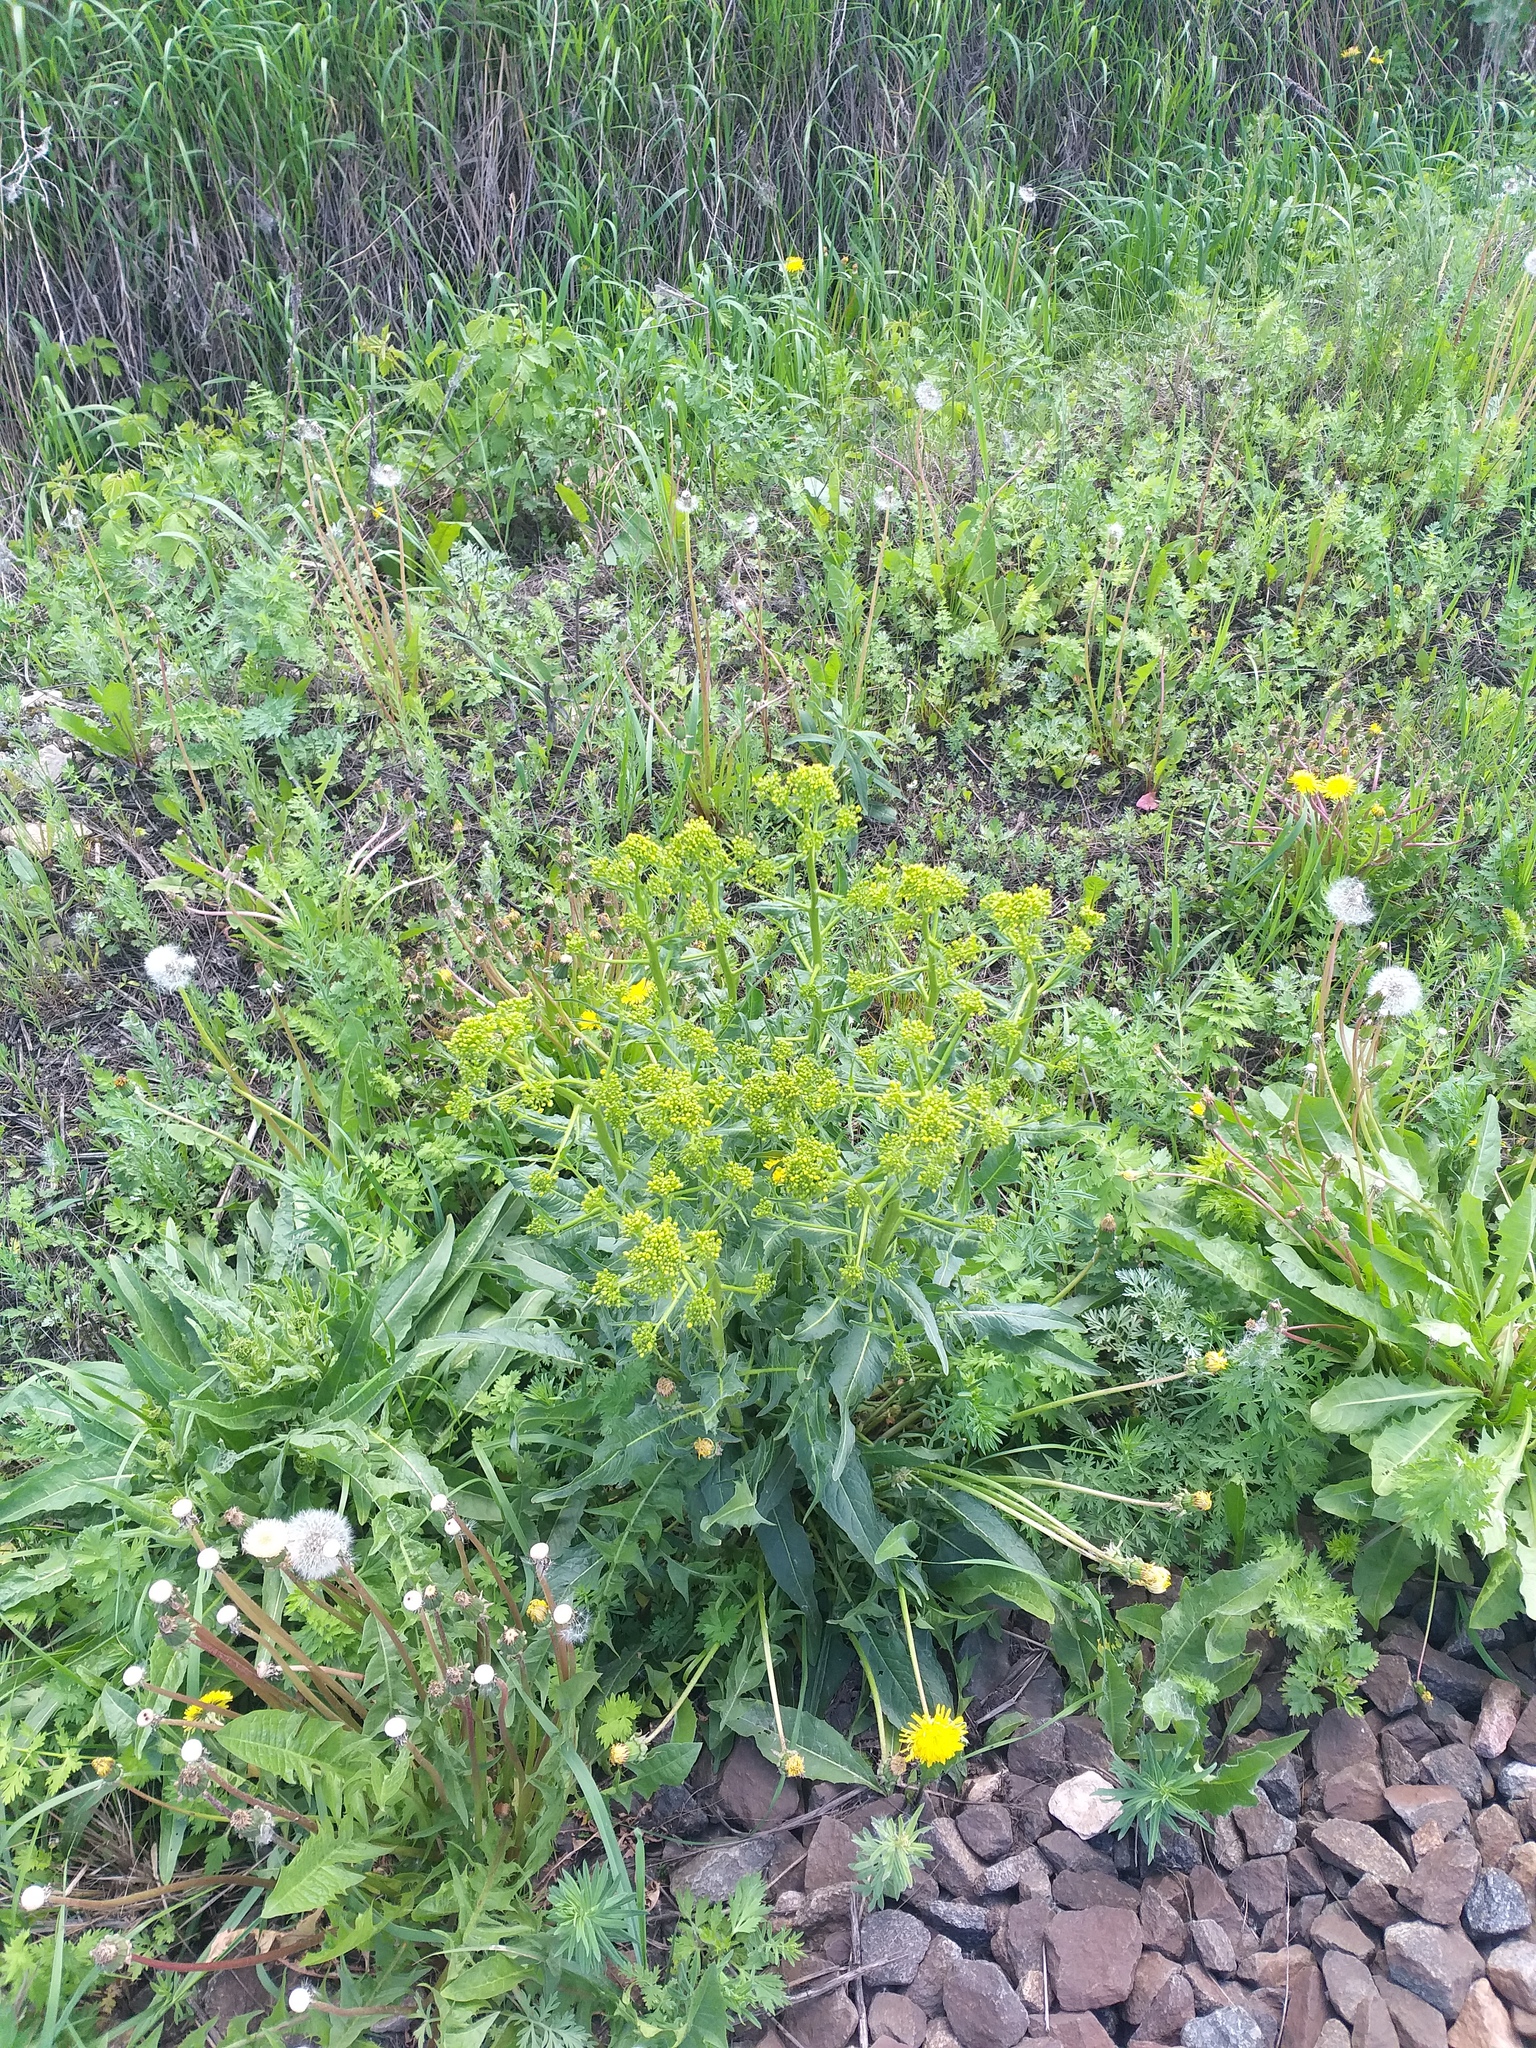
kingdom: Plantae
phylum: Tracheophyta
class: Magnoliopsida
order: Brassicales
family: Brassicaceae
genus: Bunias
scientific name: Bunias orientalis
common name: Warty-cabbage
